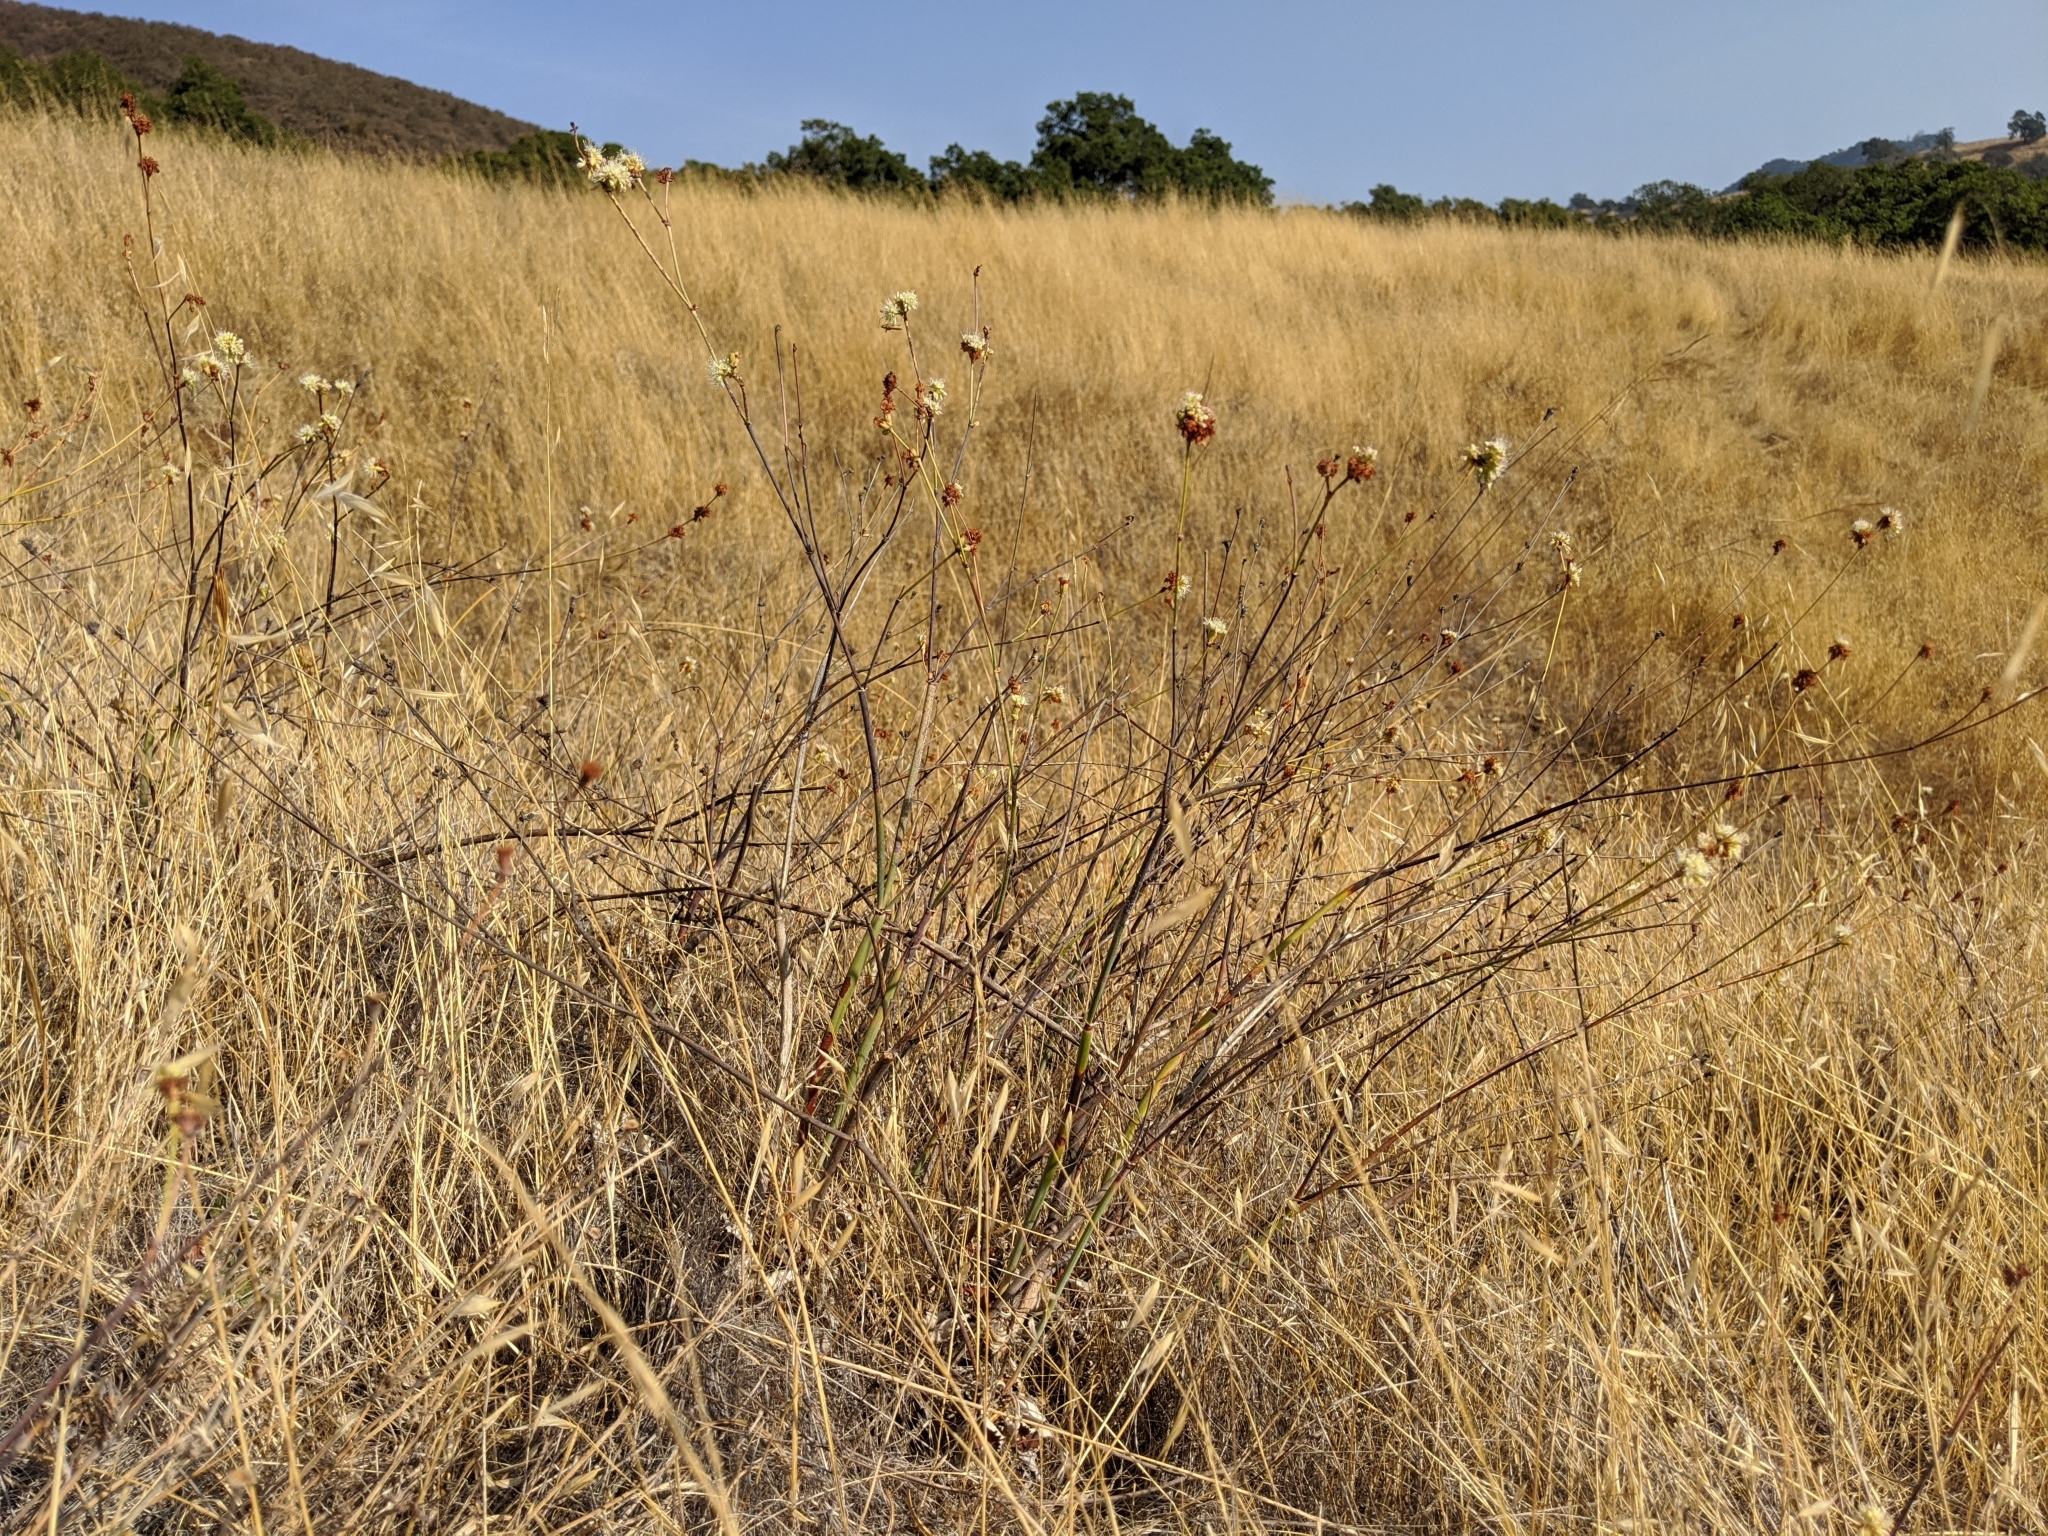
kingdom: Plantae
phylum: Tracheophyta
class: Magnoliopsida
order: Caryophyllales
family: Polygonaceae
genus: Eriogonum
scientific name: Eriogonum nudum
